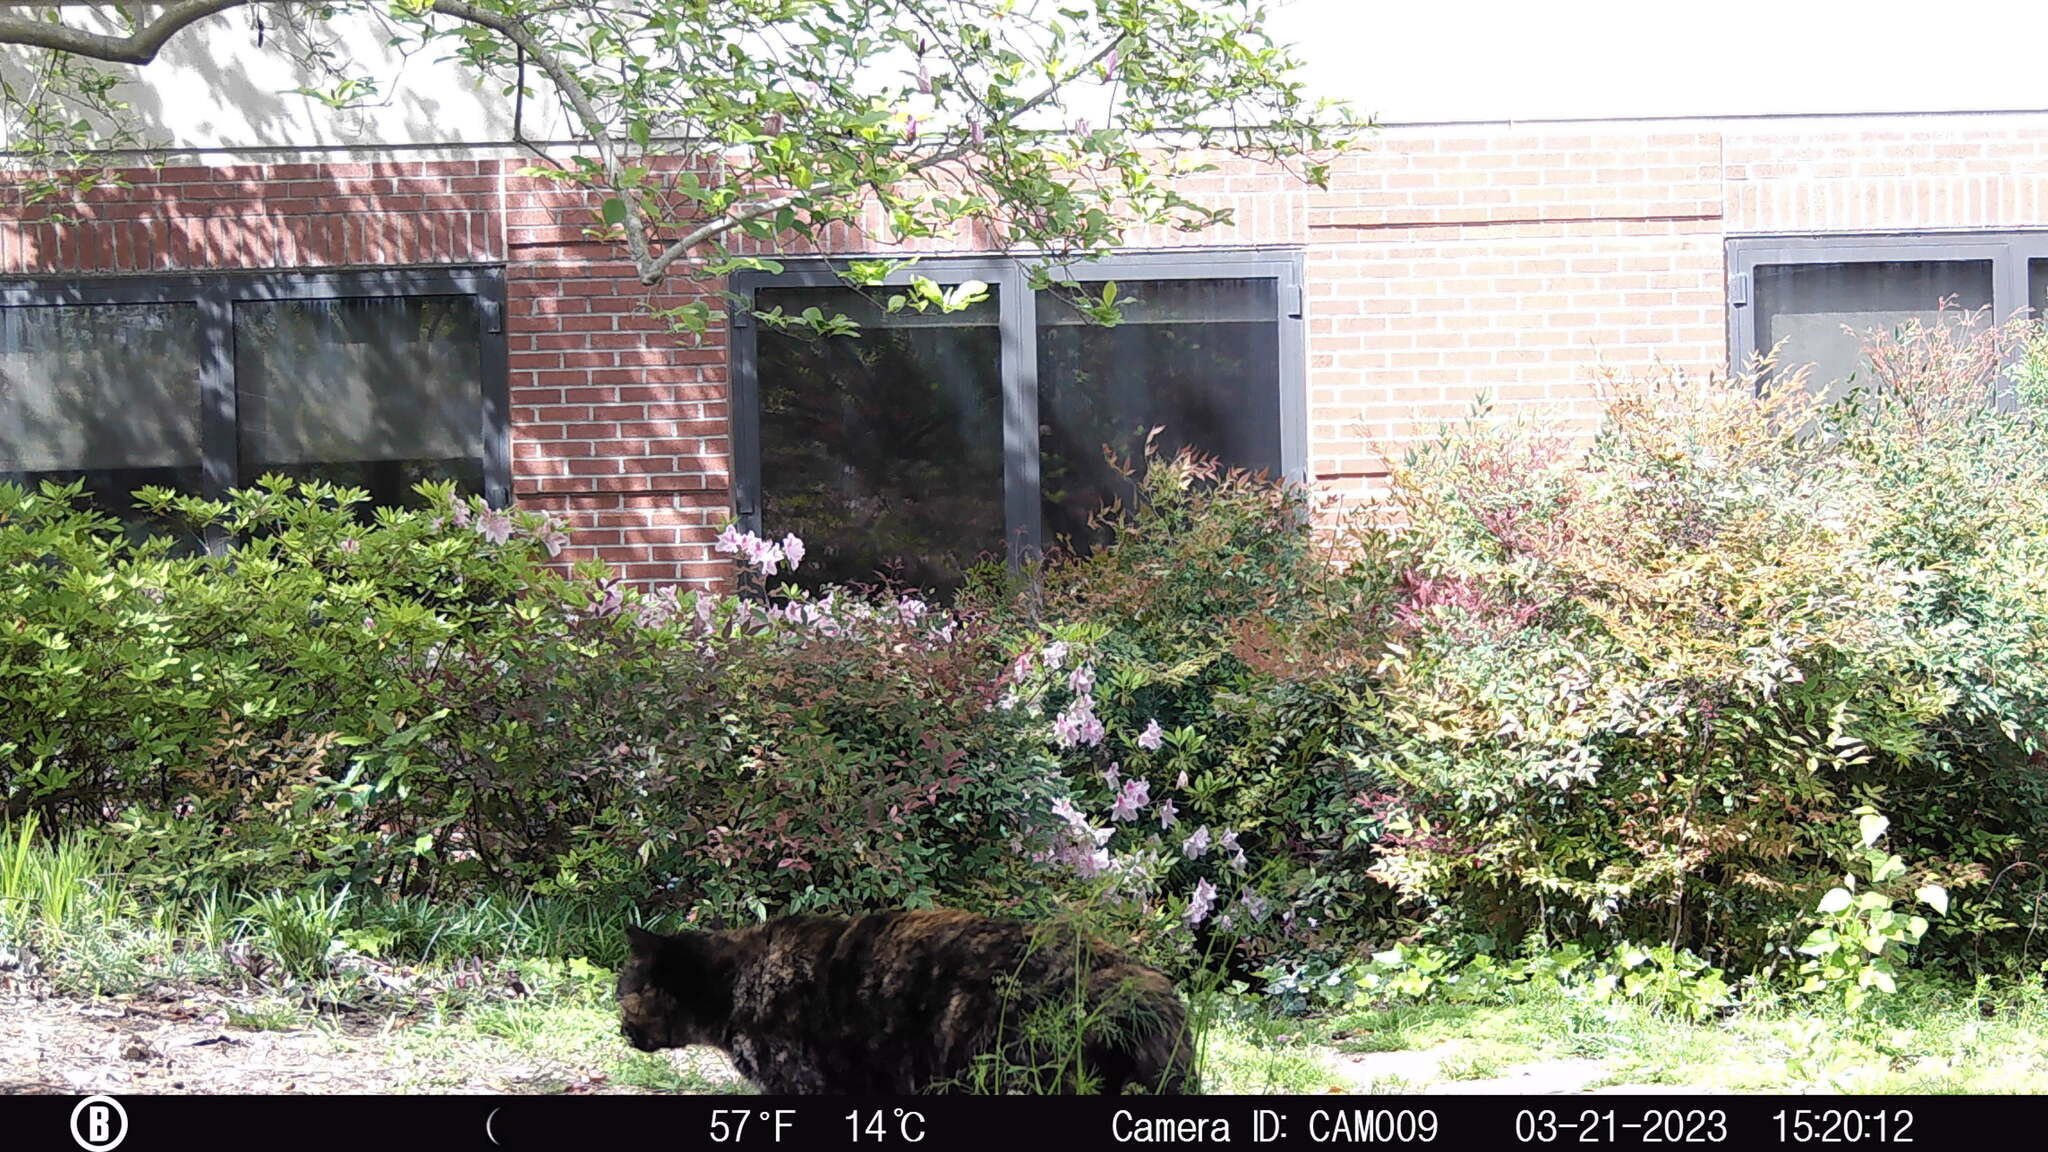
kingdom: Animalia
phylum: Chordata
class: Mammalia
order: Carnivora
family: Felidae
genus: Felis
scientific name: Felis catus
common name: Domestic cat
